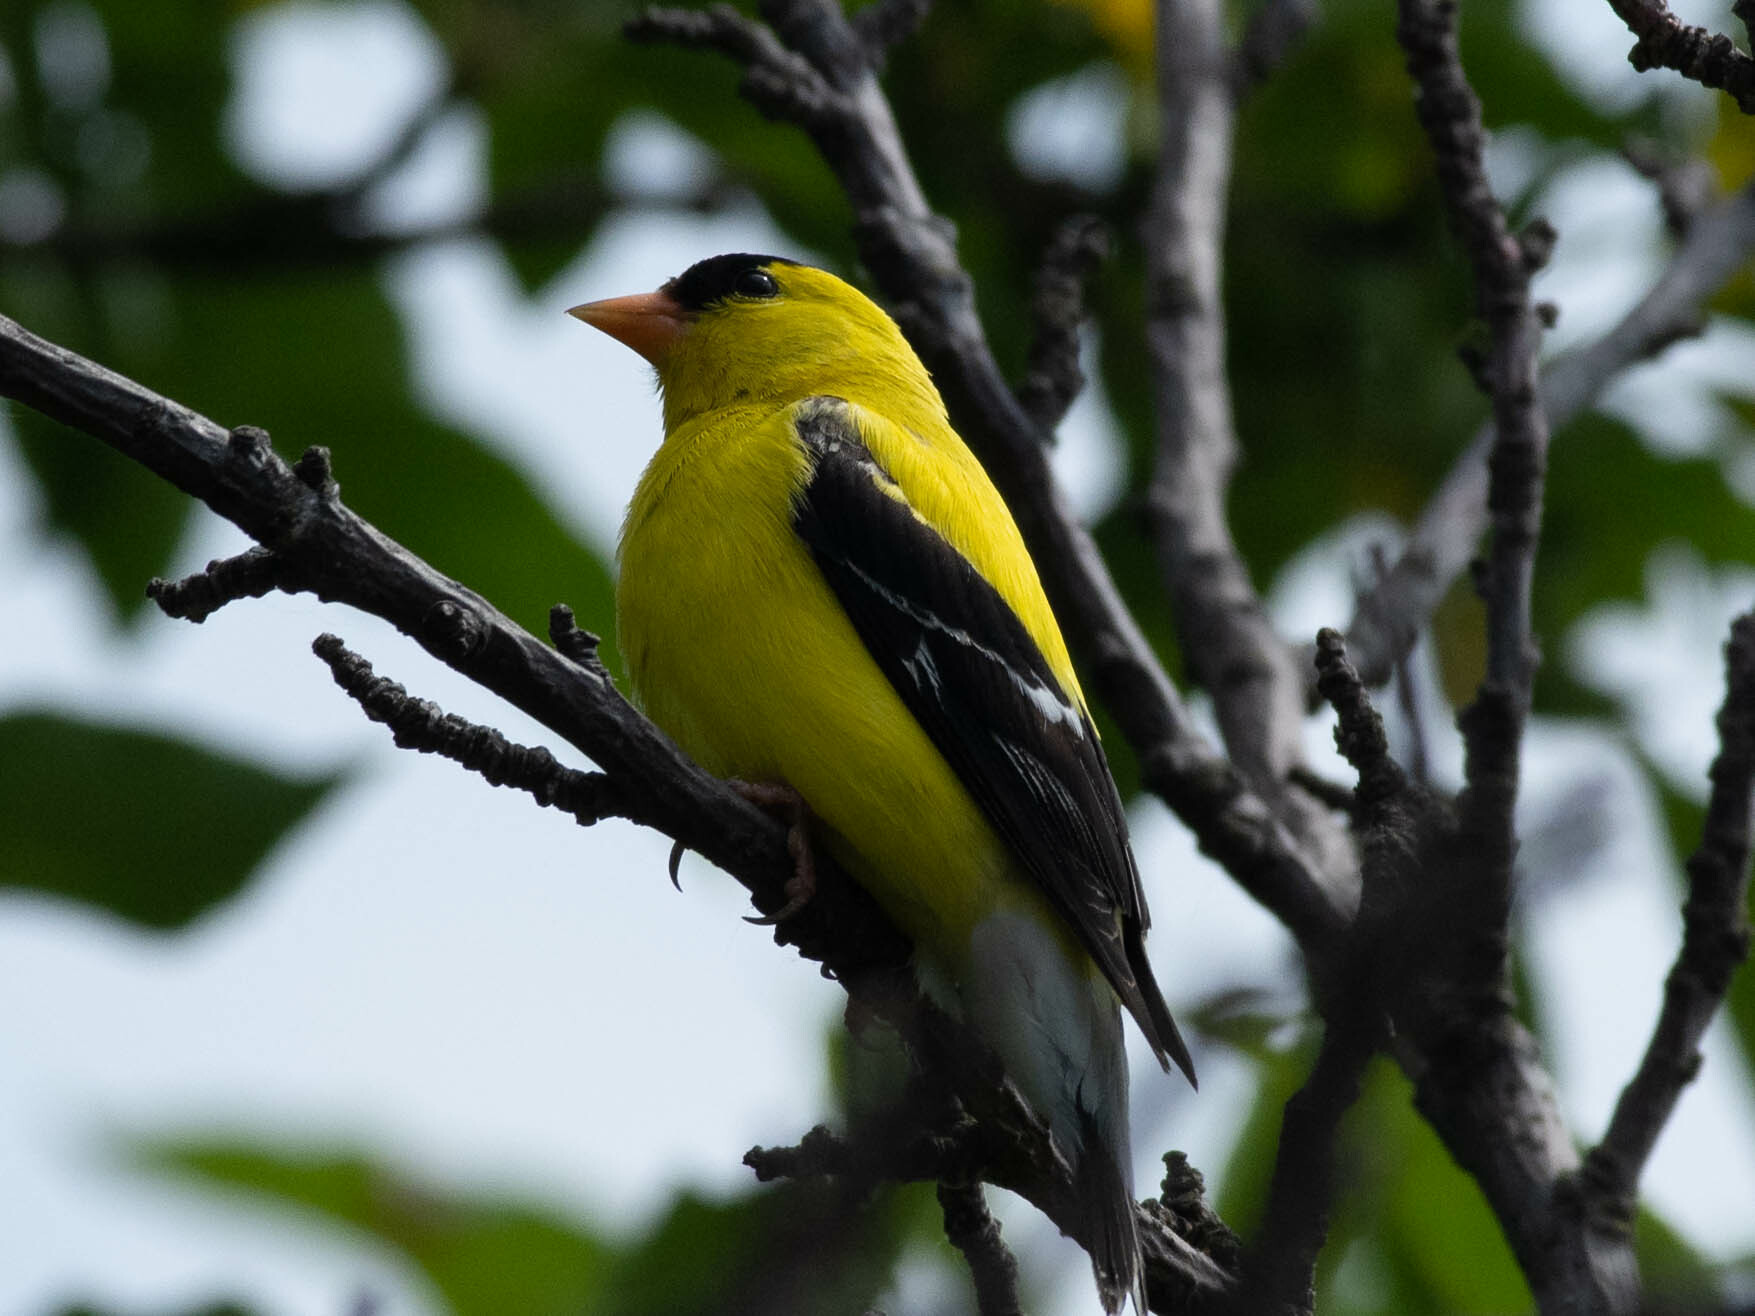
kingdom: Animalia
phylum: Chordata
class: Aves
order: Passeriformes
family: Fringillidae
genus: Spinus
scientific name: Spinus tristis
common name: American goldfinch
